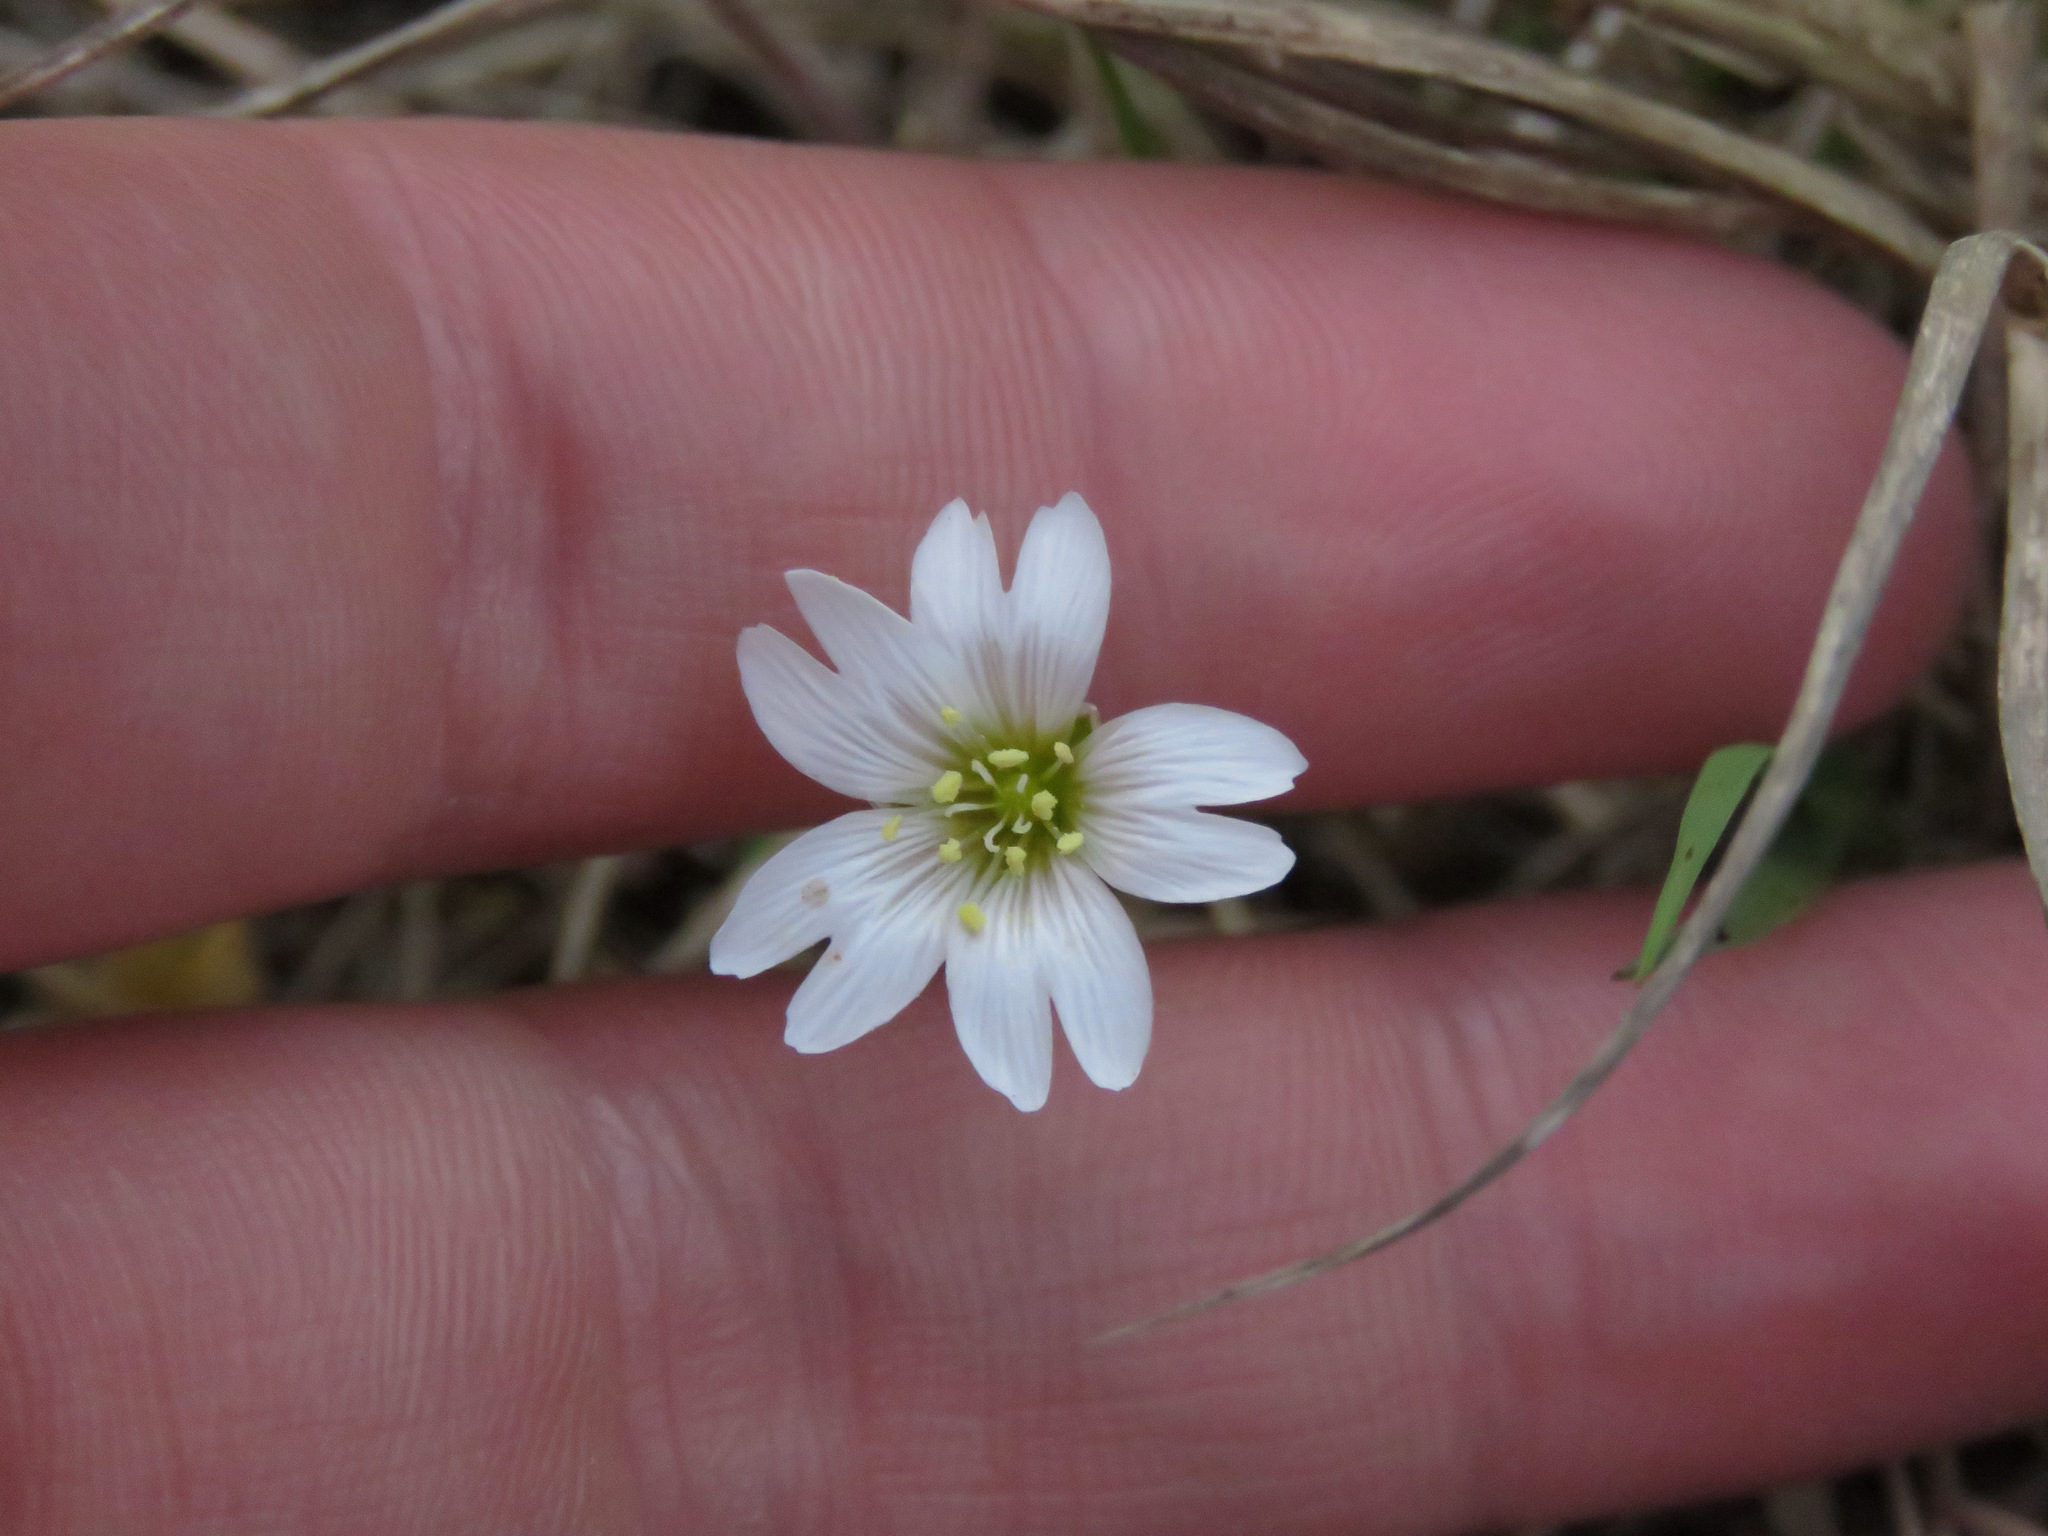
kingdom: Plantae
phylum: Tracheophyta
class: Magnoliopsida
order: Caryophyllales
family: Caryophyllaceae
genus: Cerastium
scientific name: Cerastium arvense
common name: Field mouse-ear
